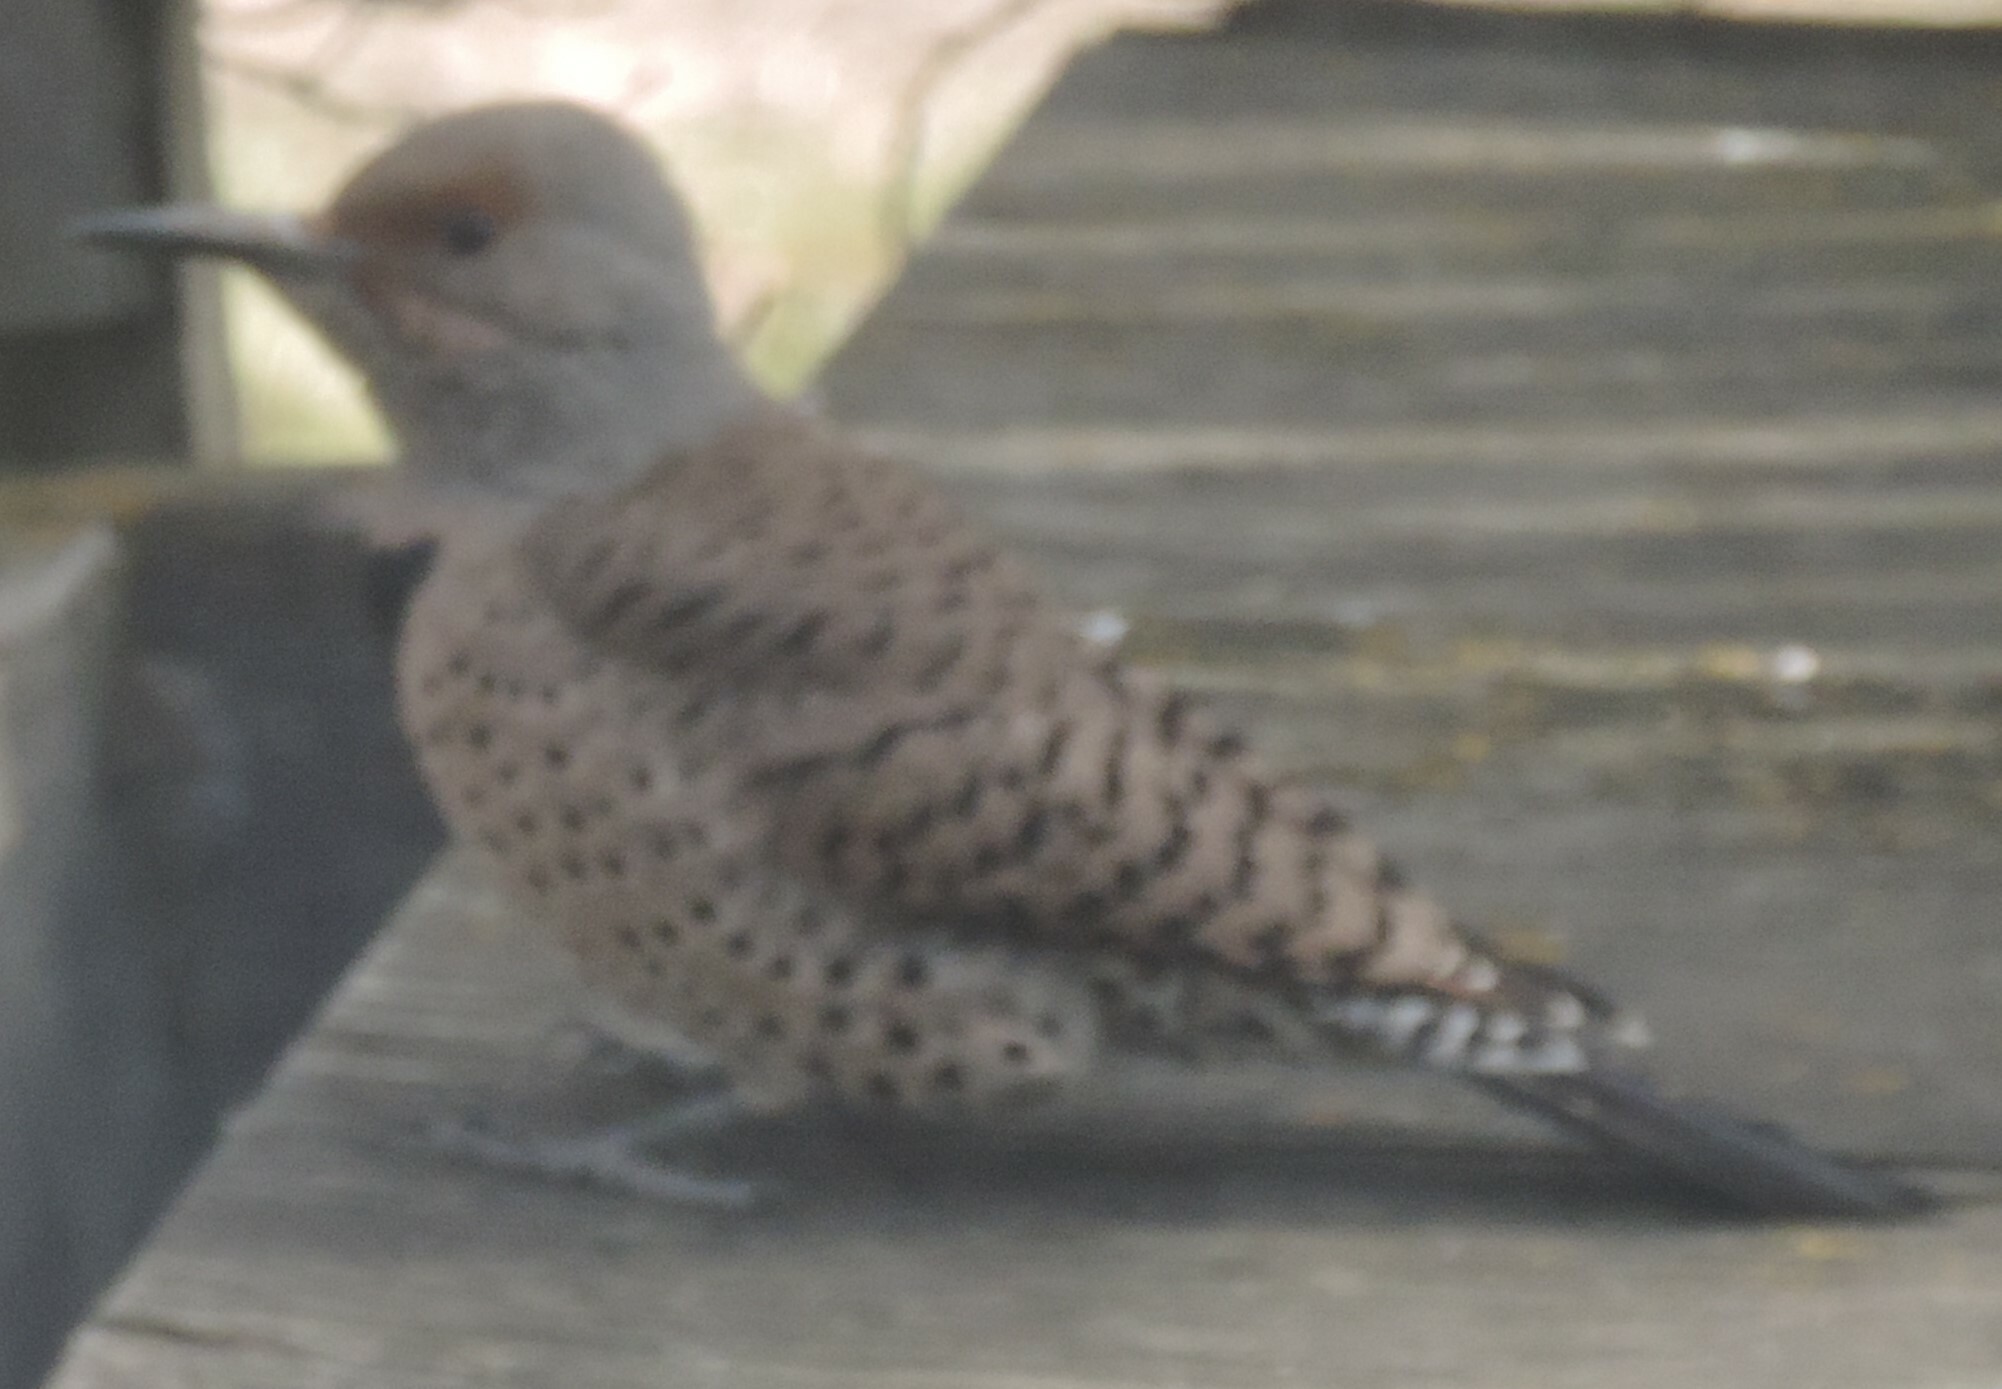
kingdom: Animalia
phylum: Chordata
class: Aves
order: Piciformes
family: Picidae
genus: Colaptes
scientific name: Colaptes auratus
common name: Northern flicker
